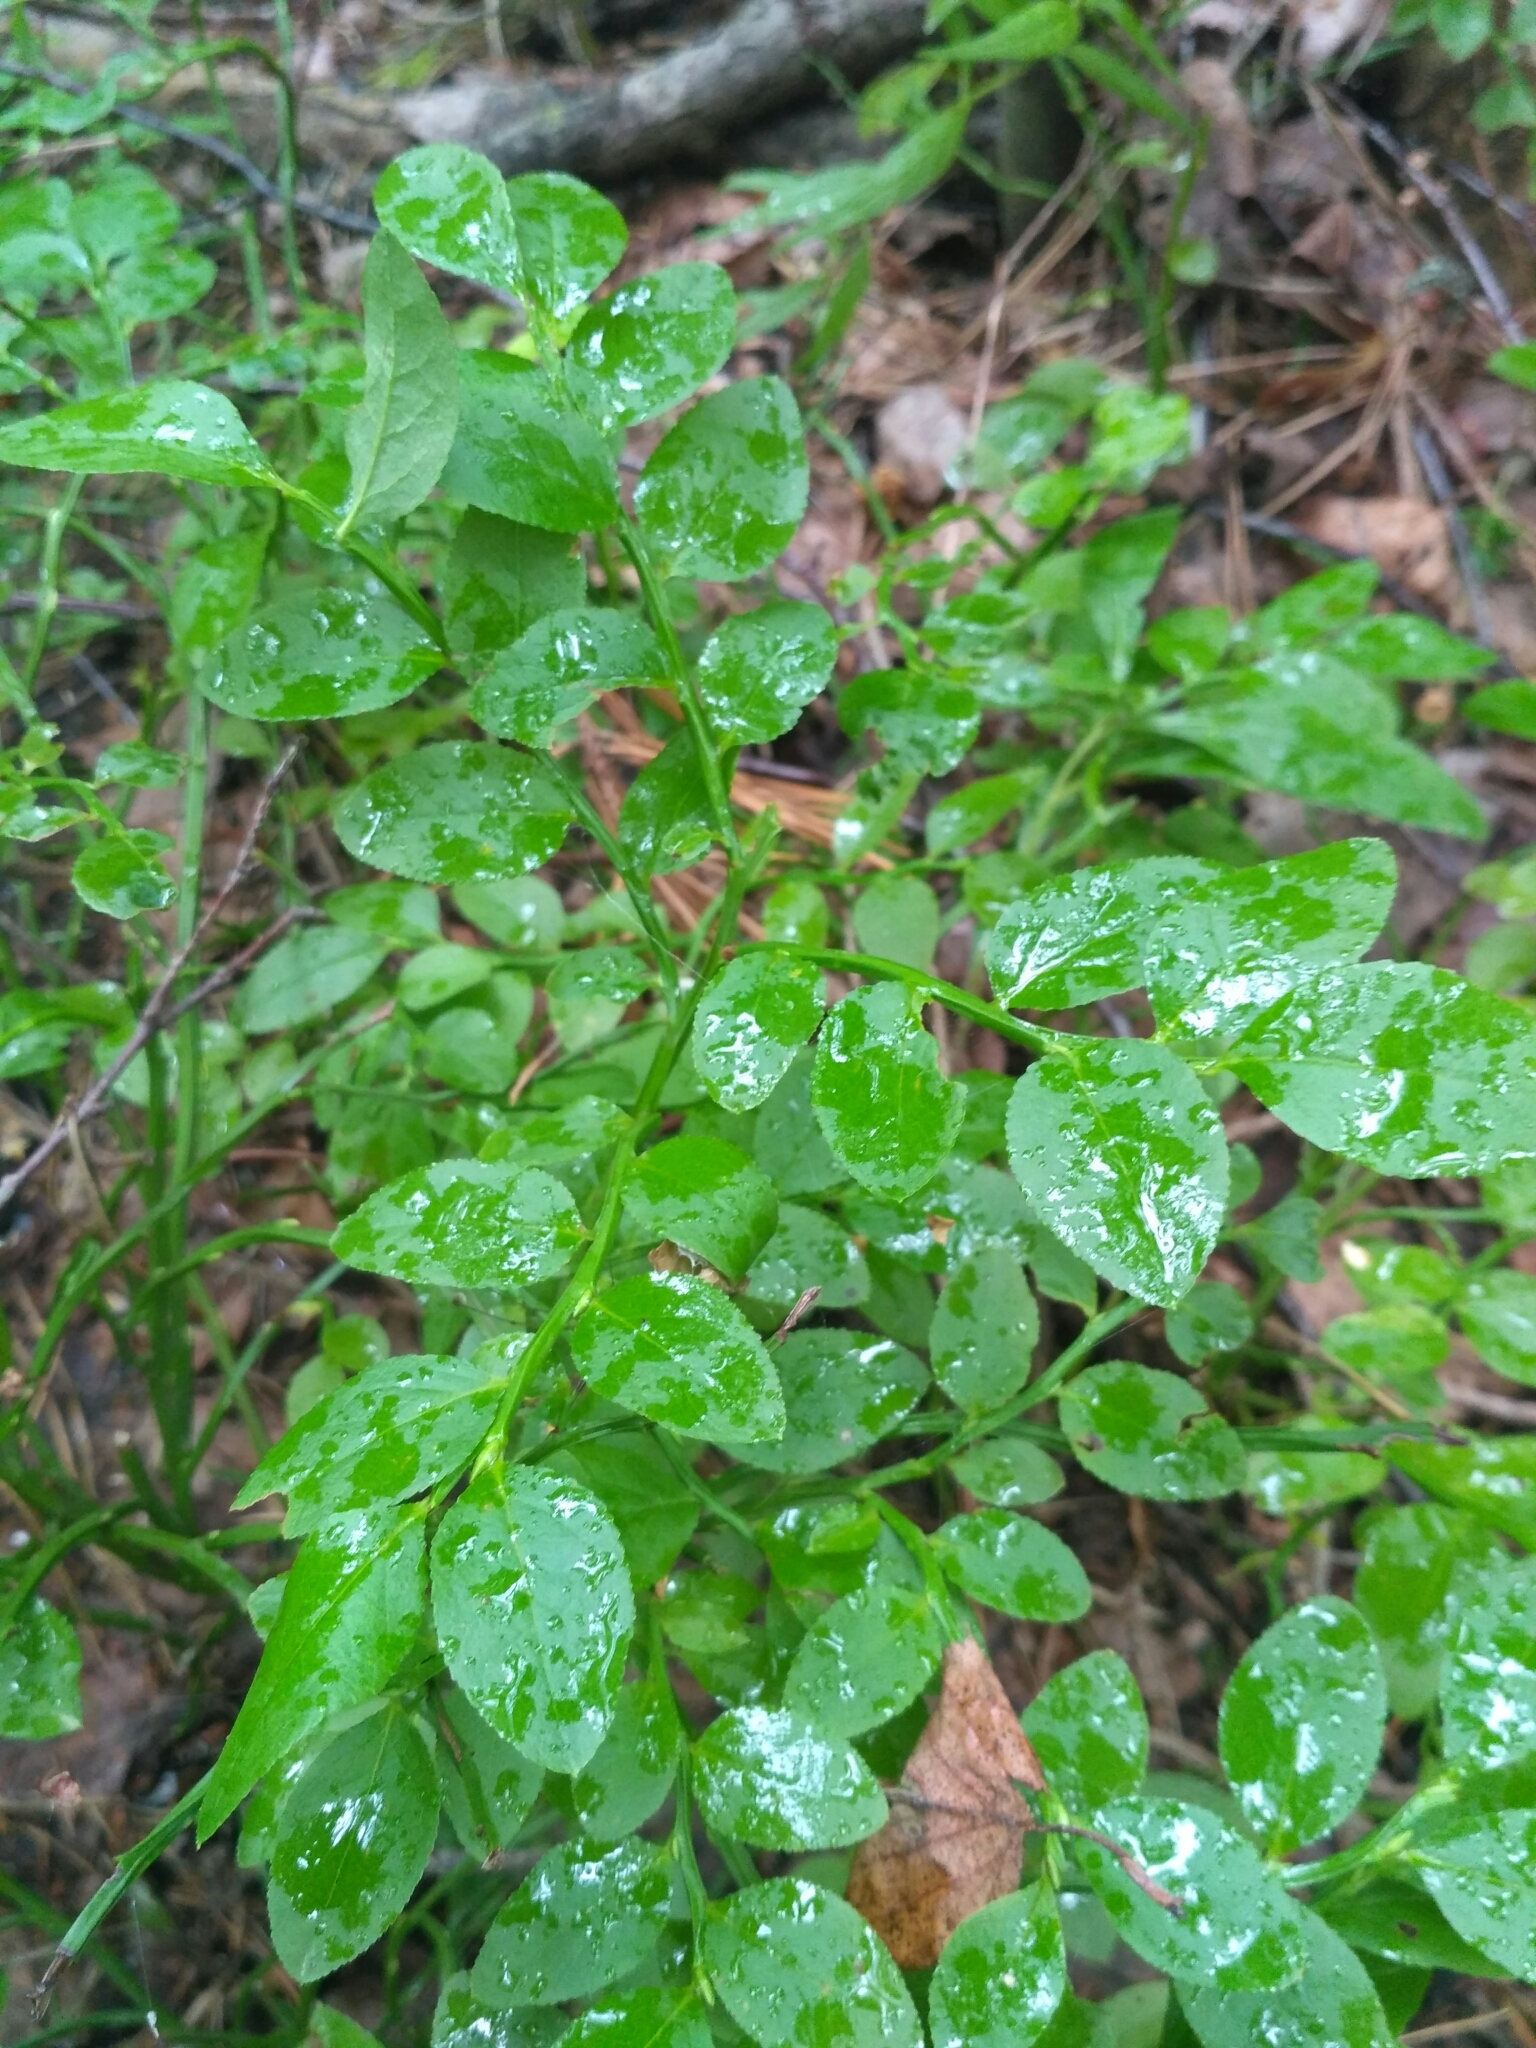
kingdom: Plantae
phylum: Tracheophyta
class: Magnoliopsida
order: Ericales
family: Ericaceae
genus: Vaccinium
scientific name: Vaccinium myrtillus
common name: Bilberry
